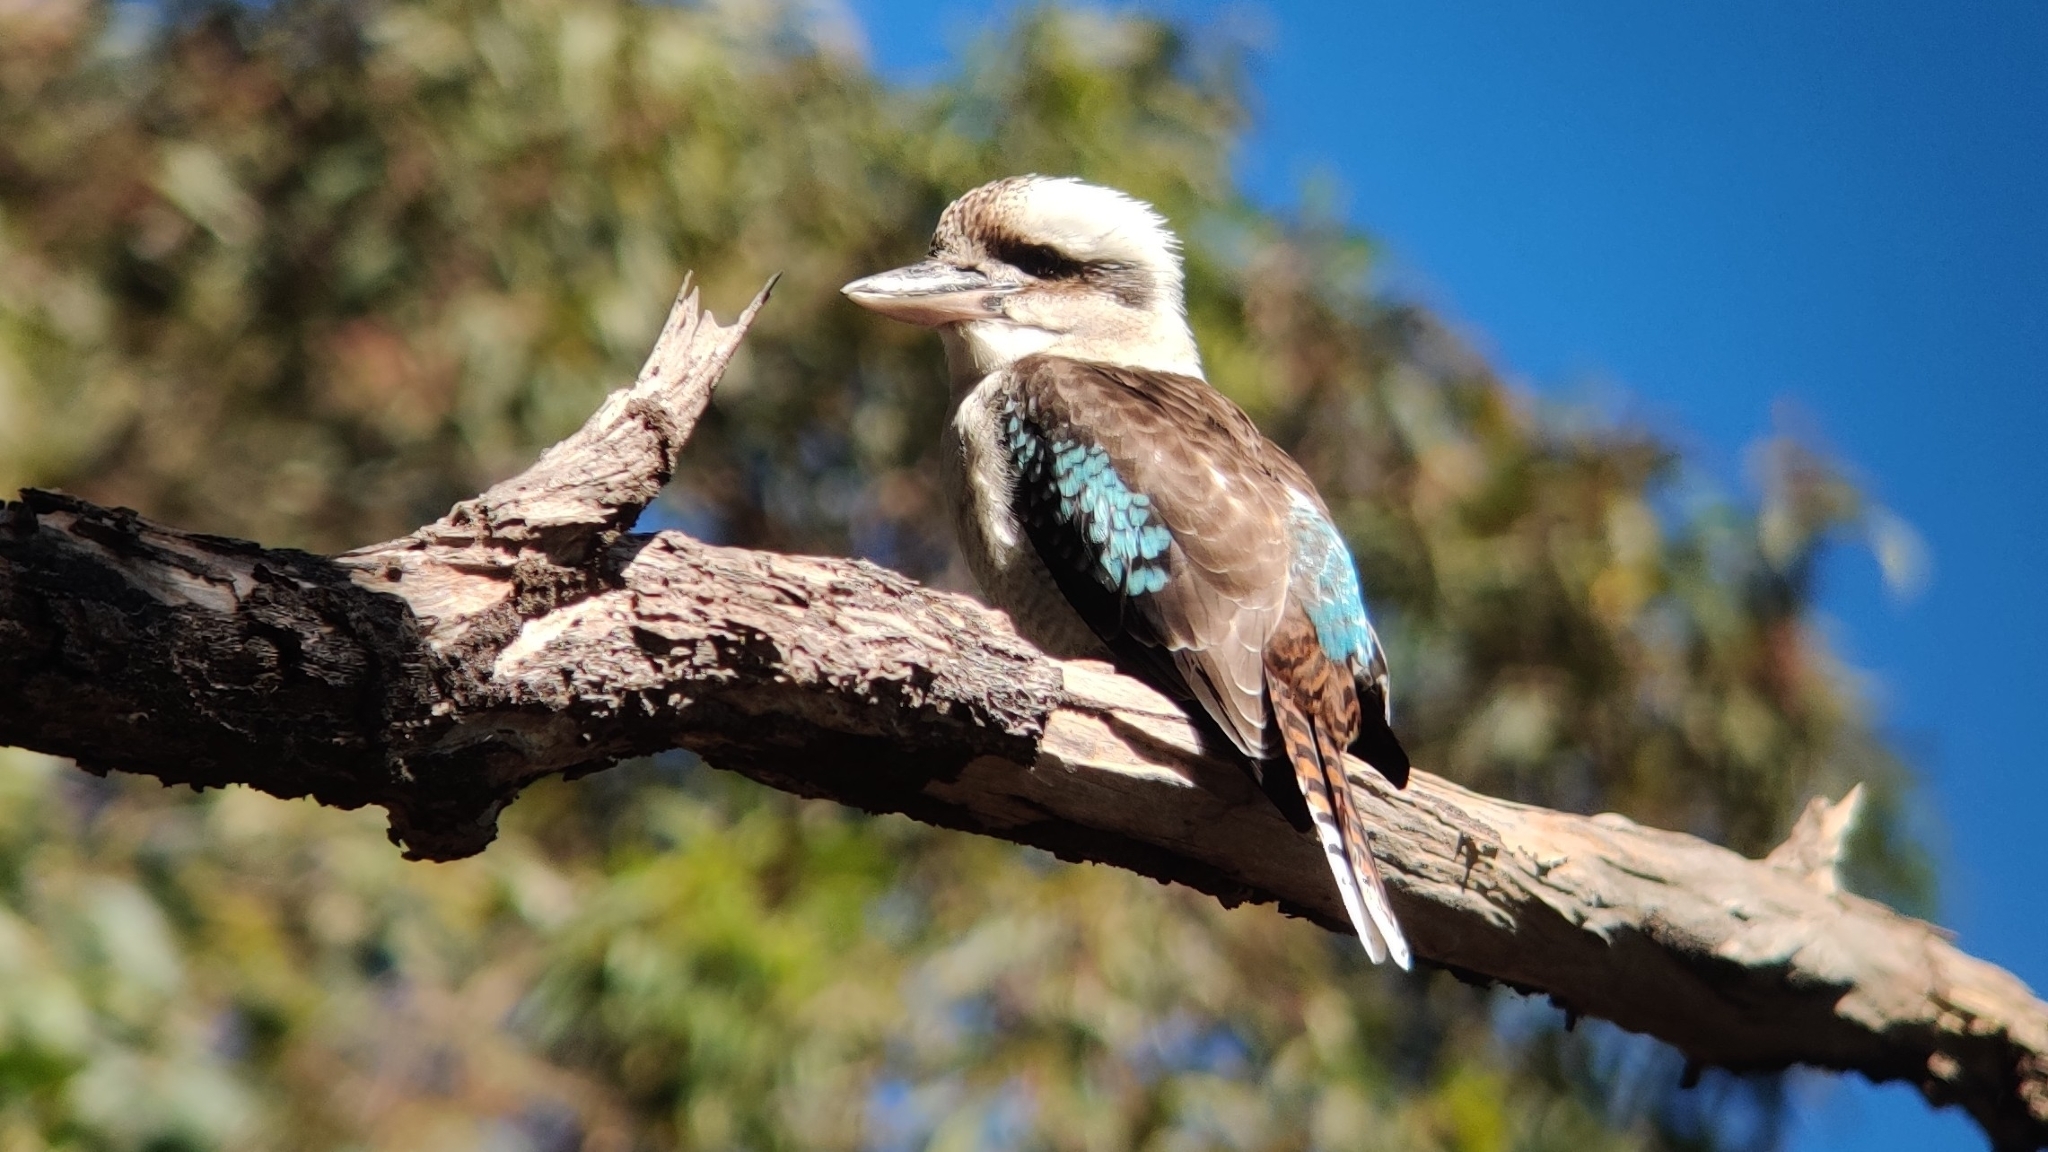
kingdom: Animalia
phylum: Chordata
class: Aves
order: Coraciiformes
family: Alcedinidae
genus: Dacelo
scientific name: Dacelo novaeguineae
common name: Laughing kookaburra
